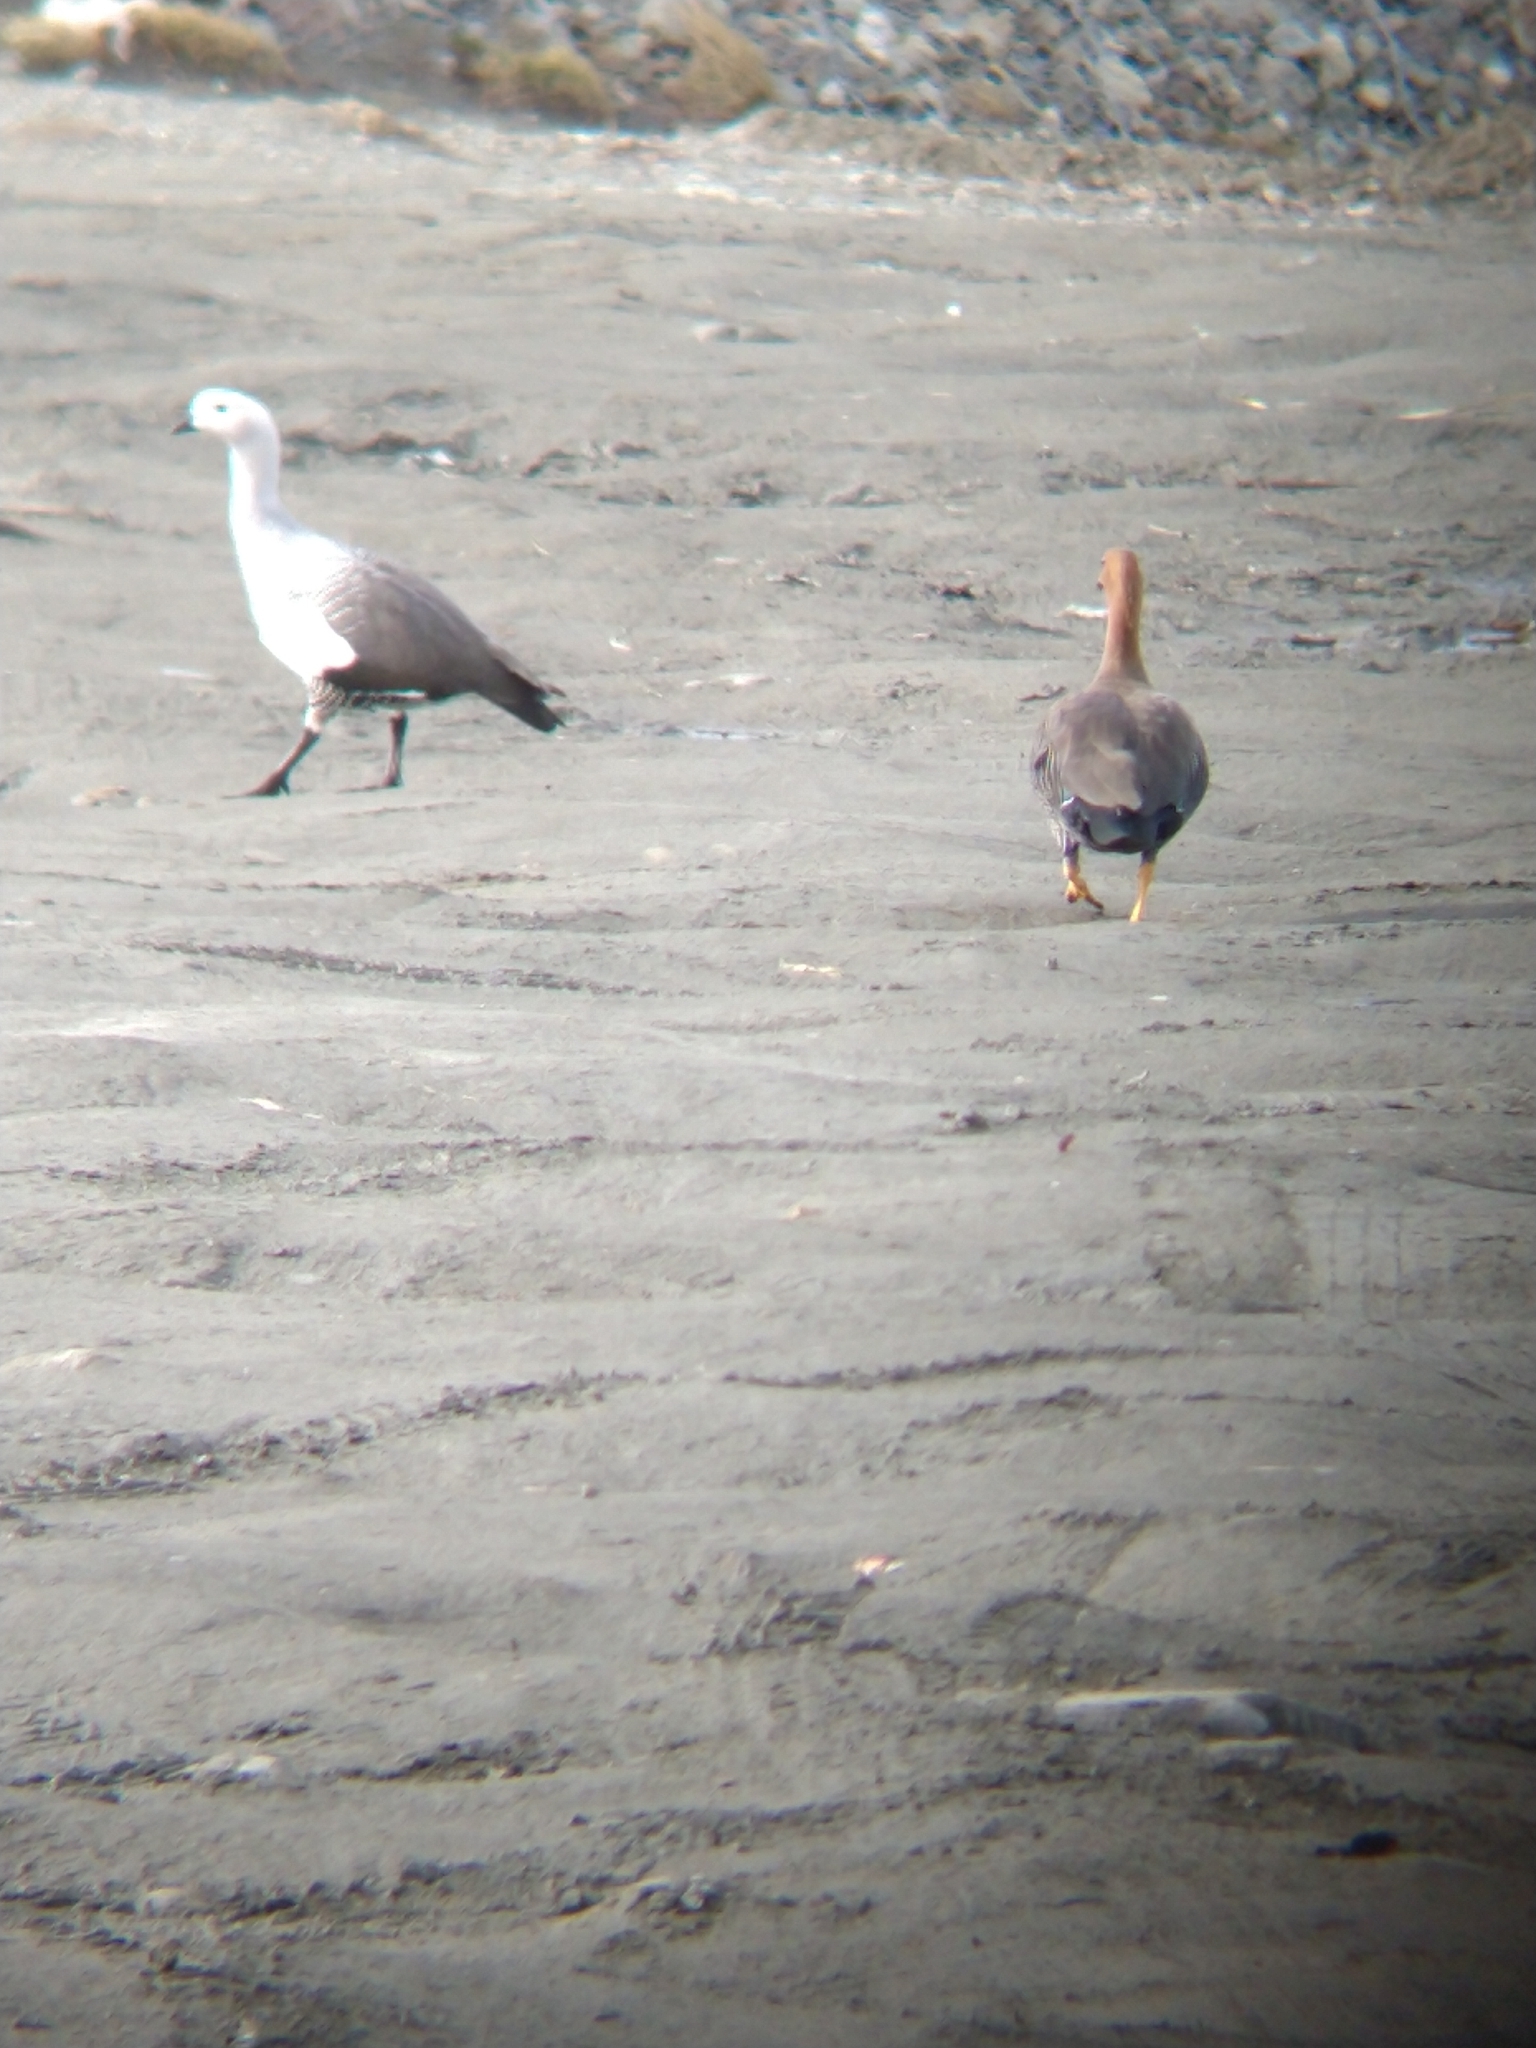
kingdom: Animalia
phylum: Chordata
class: Aves
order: Anseriformes
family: Anatidae
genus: Chloephaga
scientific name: Chloephaga picta
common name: Upland goose
